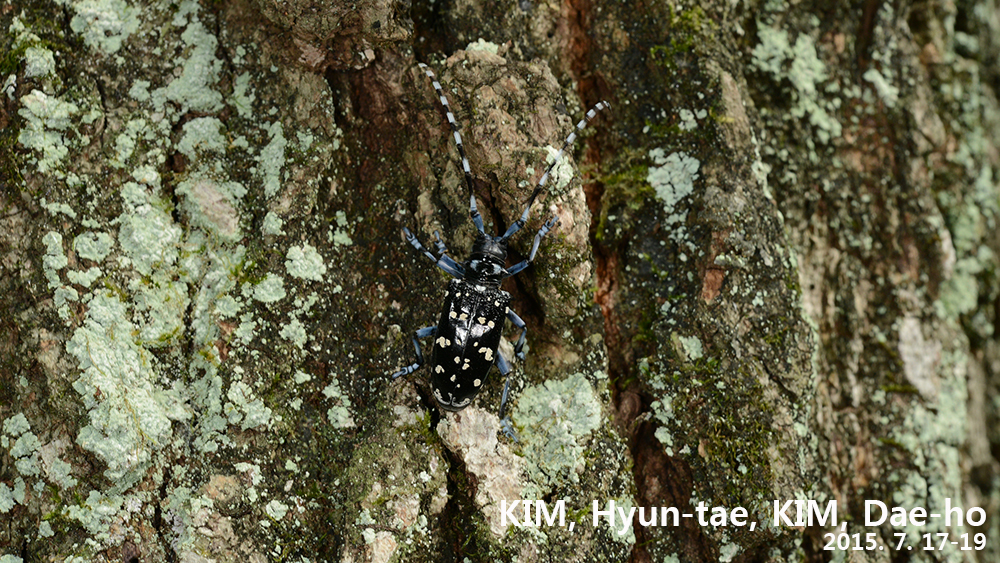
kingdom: Animalia
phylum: Arthropoda
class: Insecta
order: Coleoptera
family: Cerambycidae
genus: Anoplophora
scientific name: Anoplophora chinensis
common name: Citrus longhorned beetle
